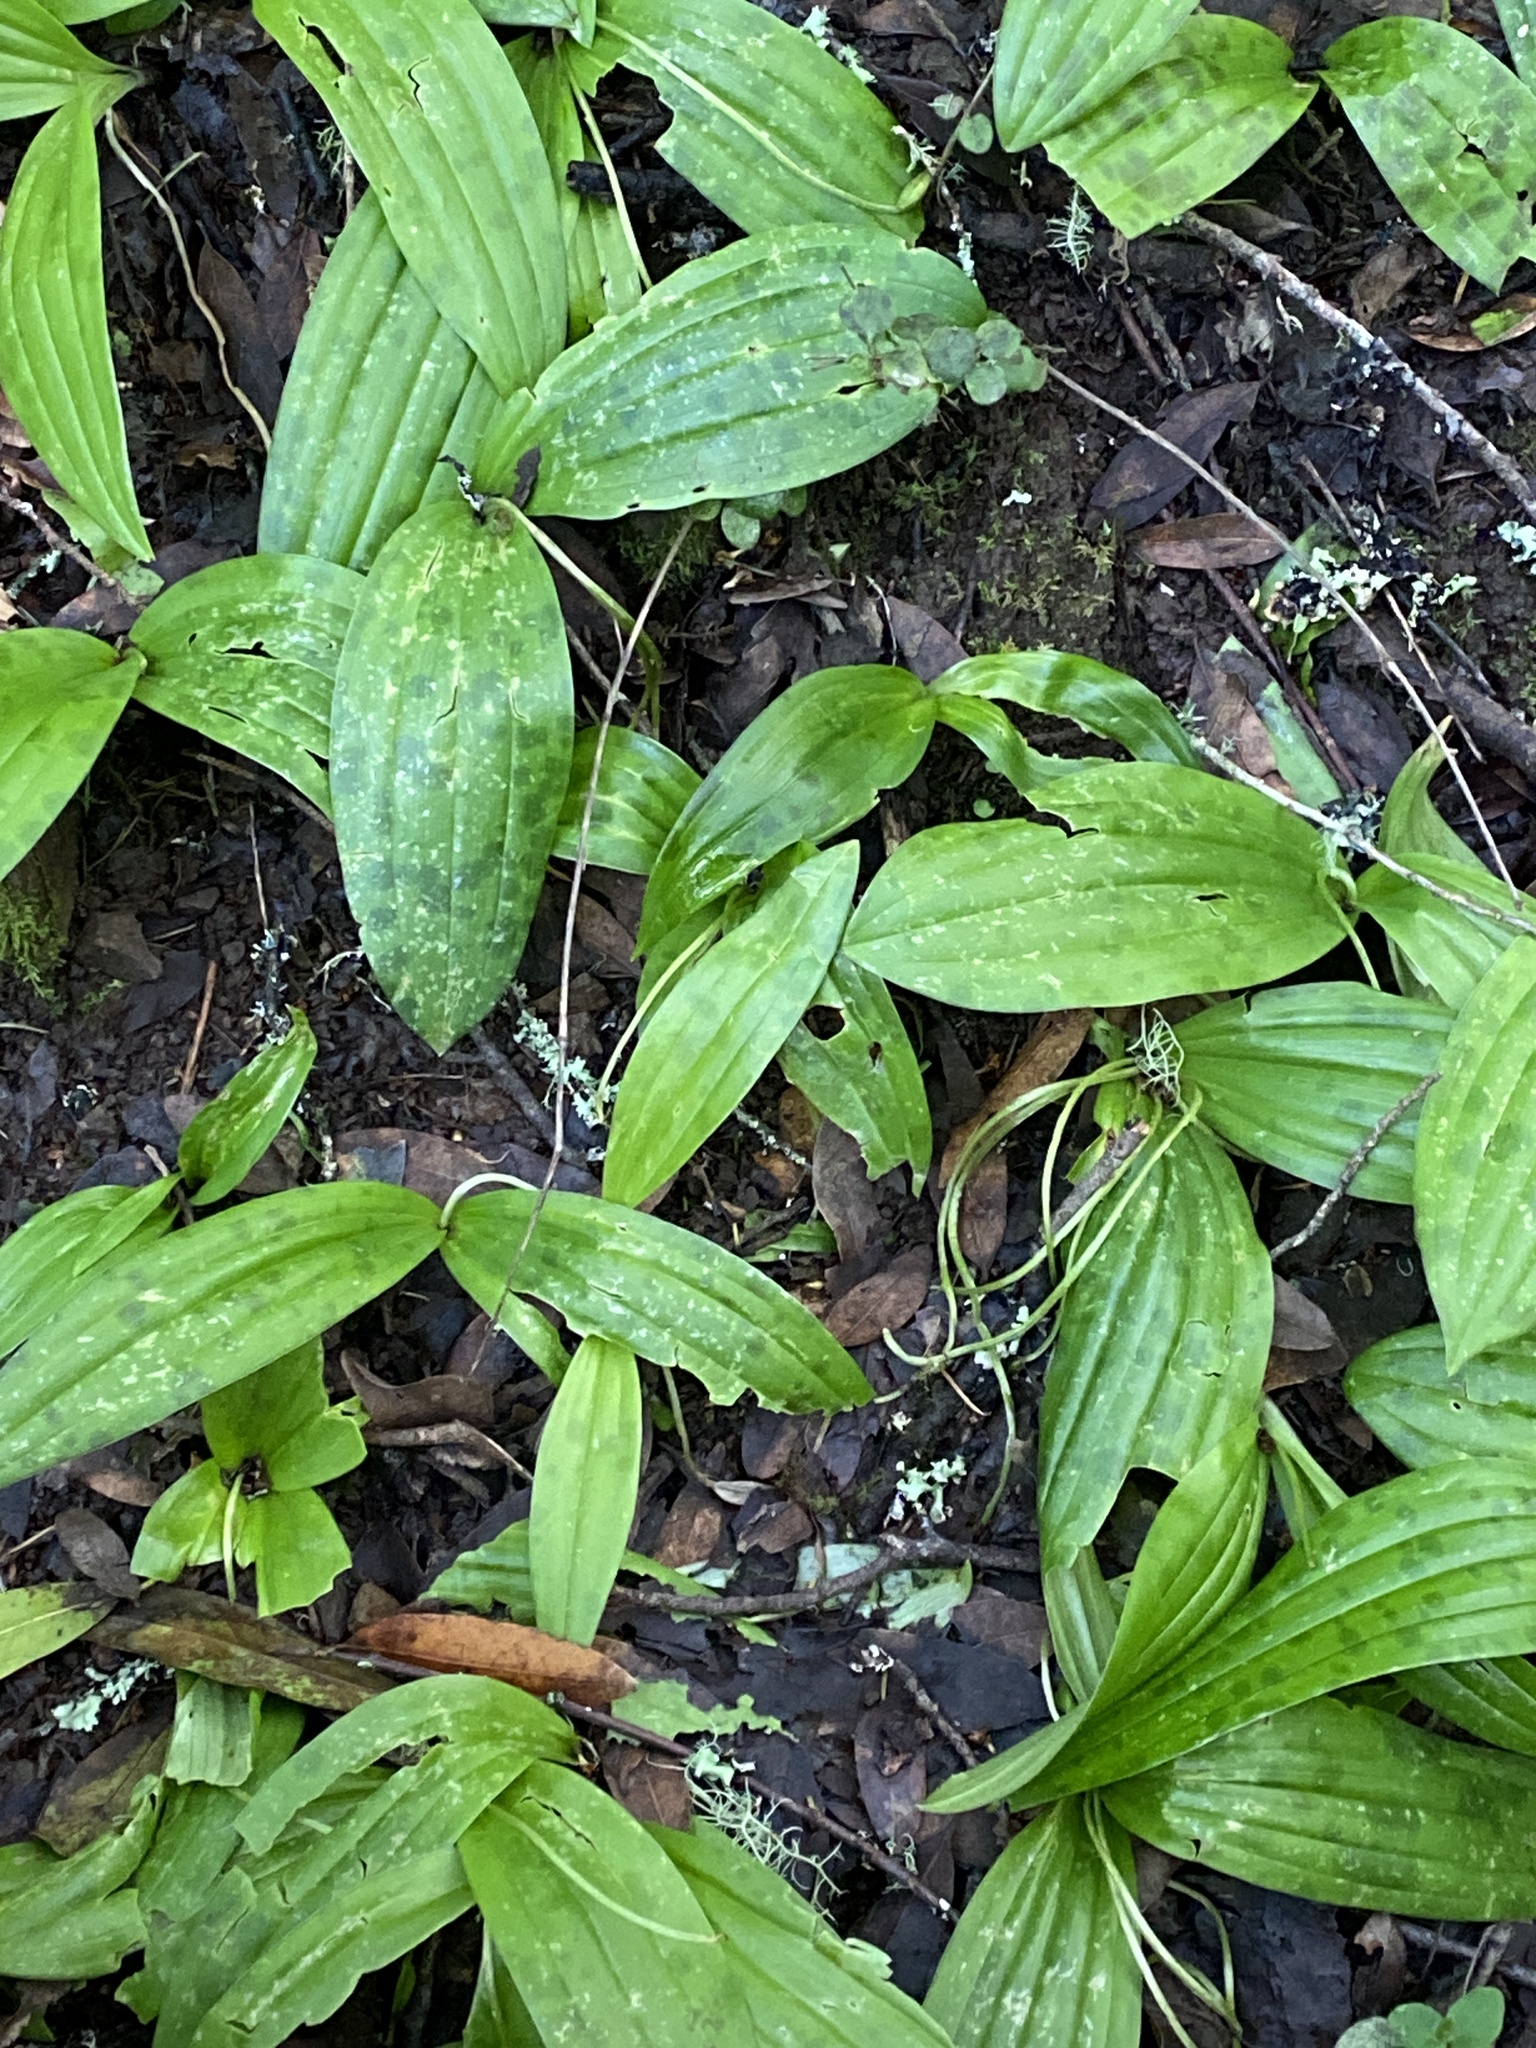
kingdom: Plantae
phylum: Tracheophyta
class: Liliopsida
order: Liliales
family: Liliaceae
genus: Scoliopus
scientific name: Scoliopus bigelovii
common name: Foetid adder's-tongue
